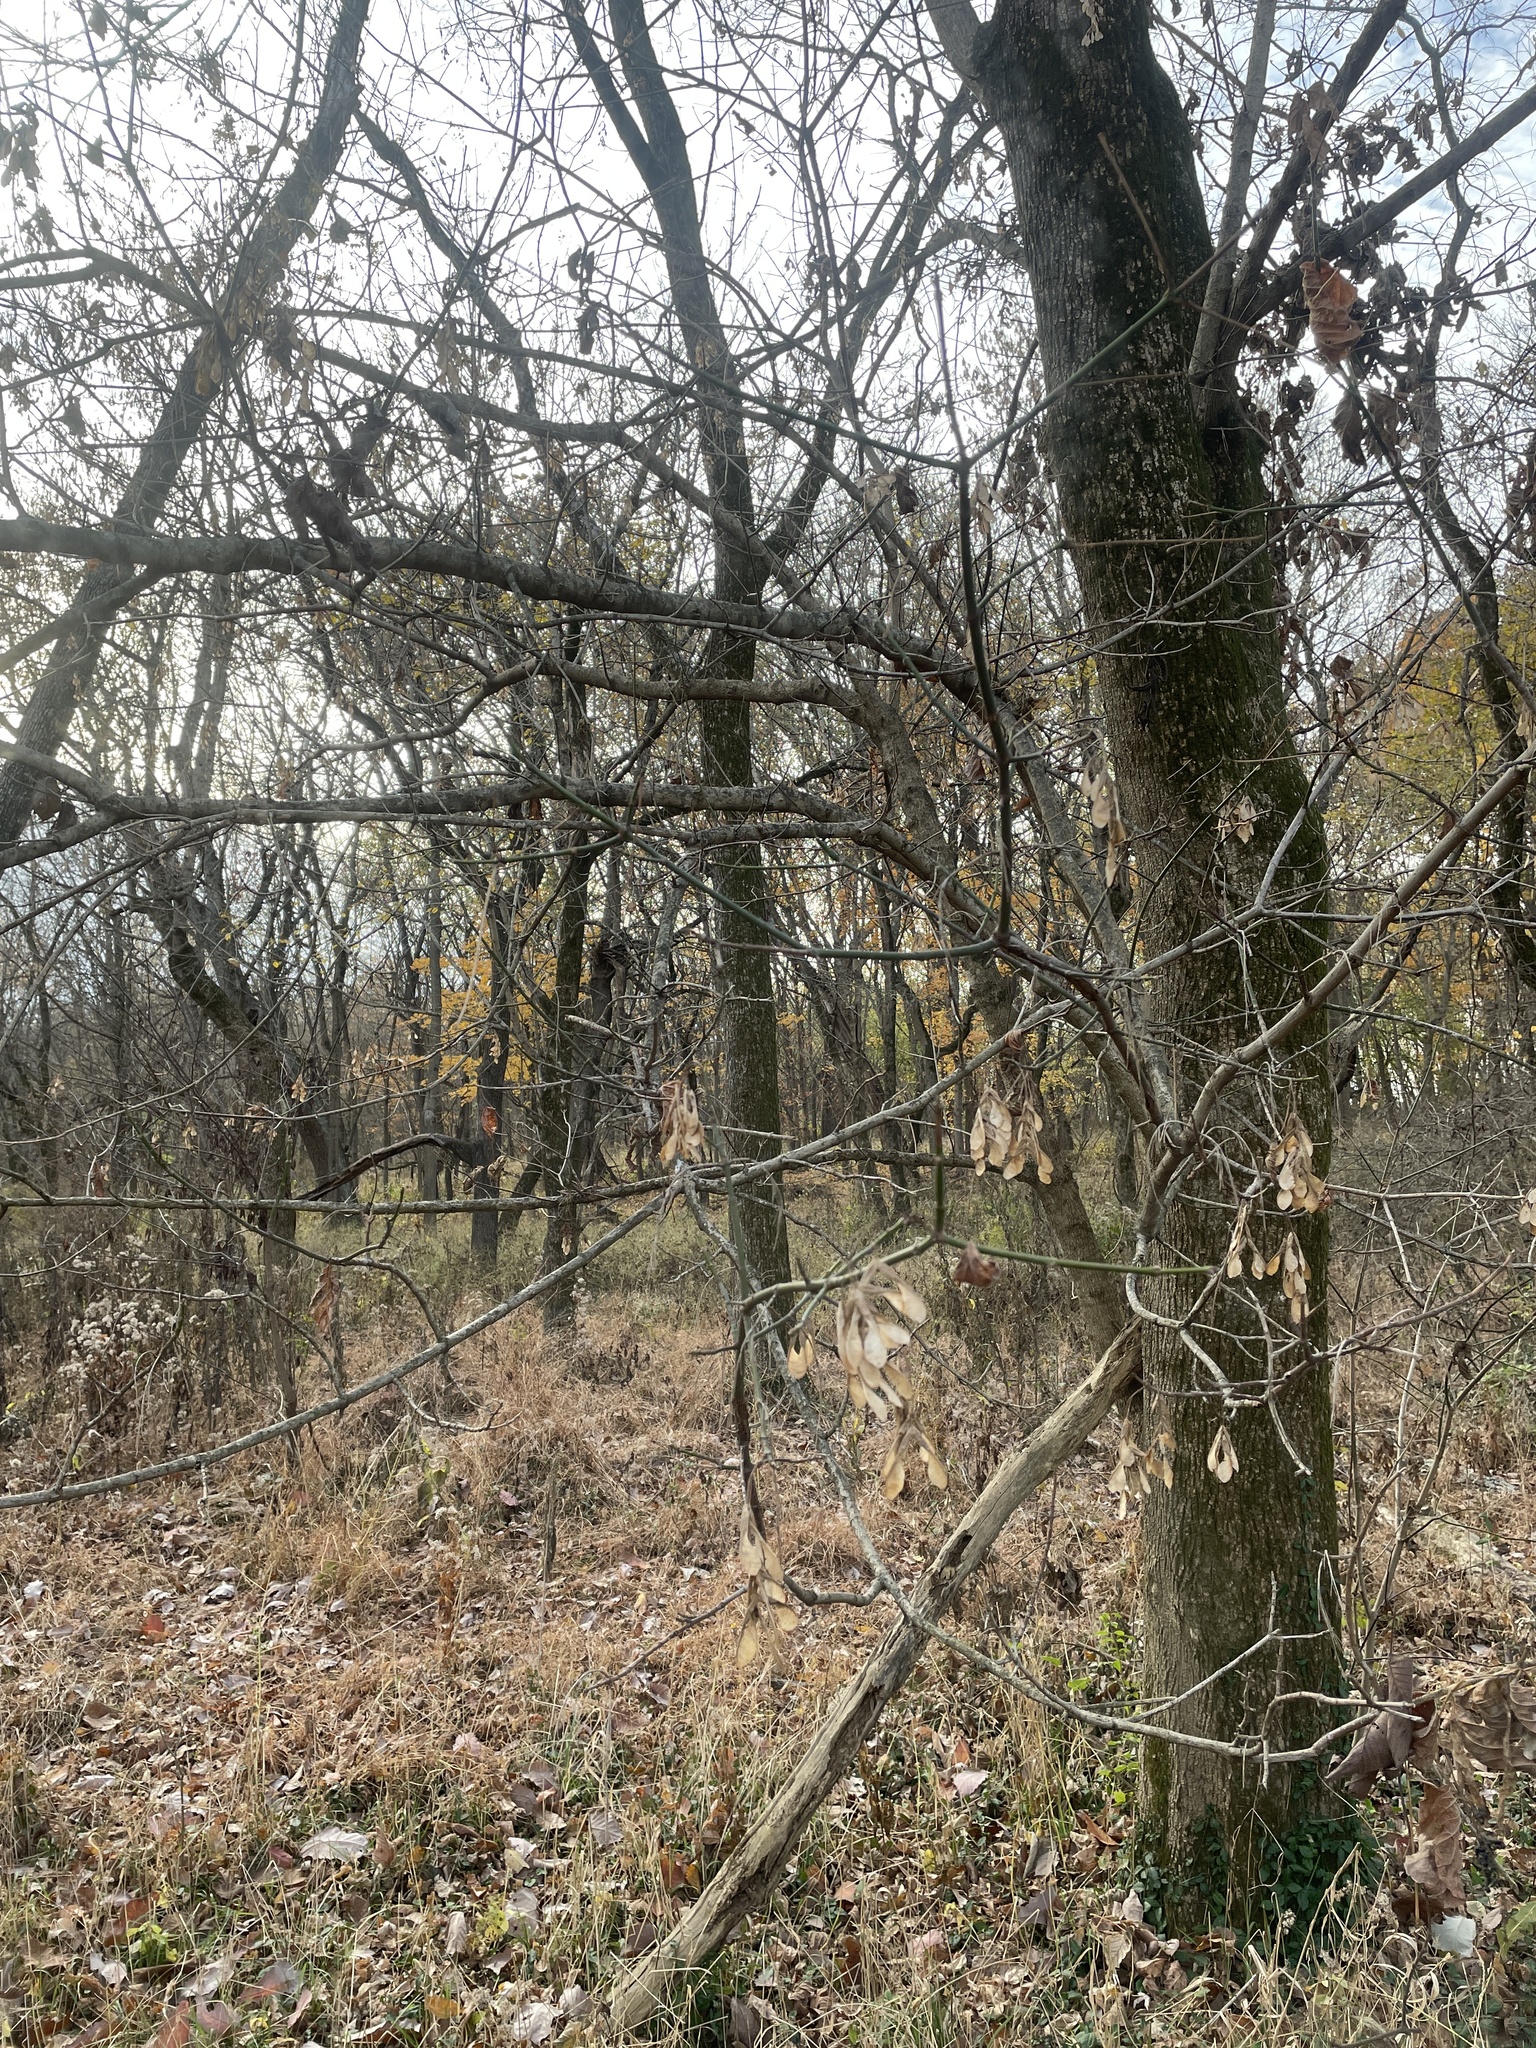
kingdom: Plantae
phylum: Tracheophyta
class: Magnoliopsida
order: Sapindales
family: Sapindaceae
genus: Acer
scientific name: Acer negundo
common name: Ashleaf maple
